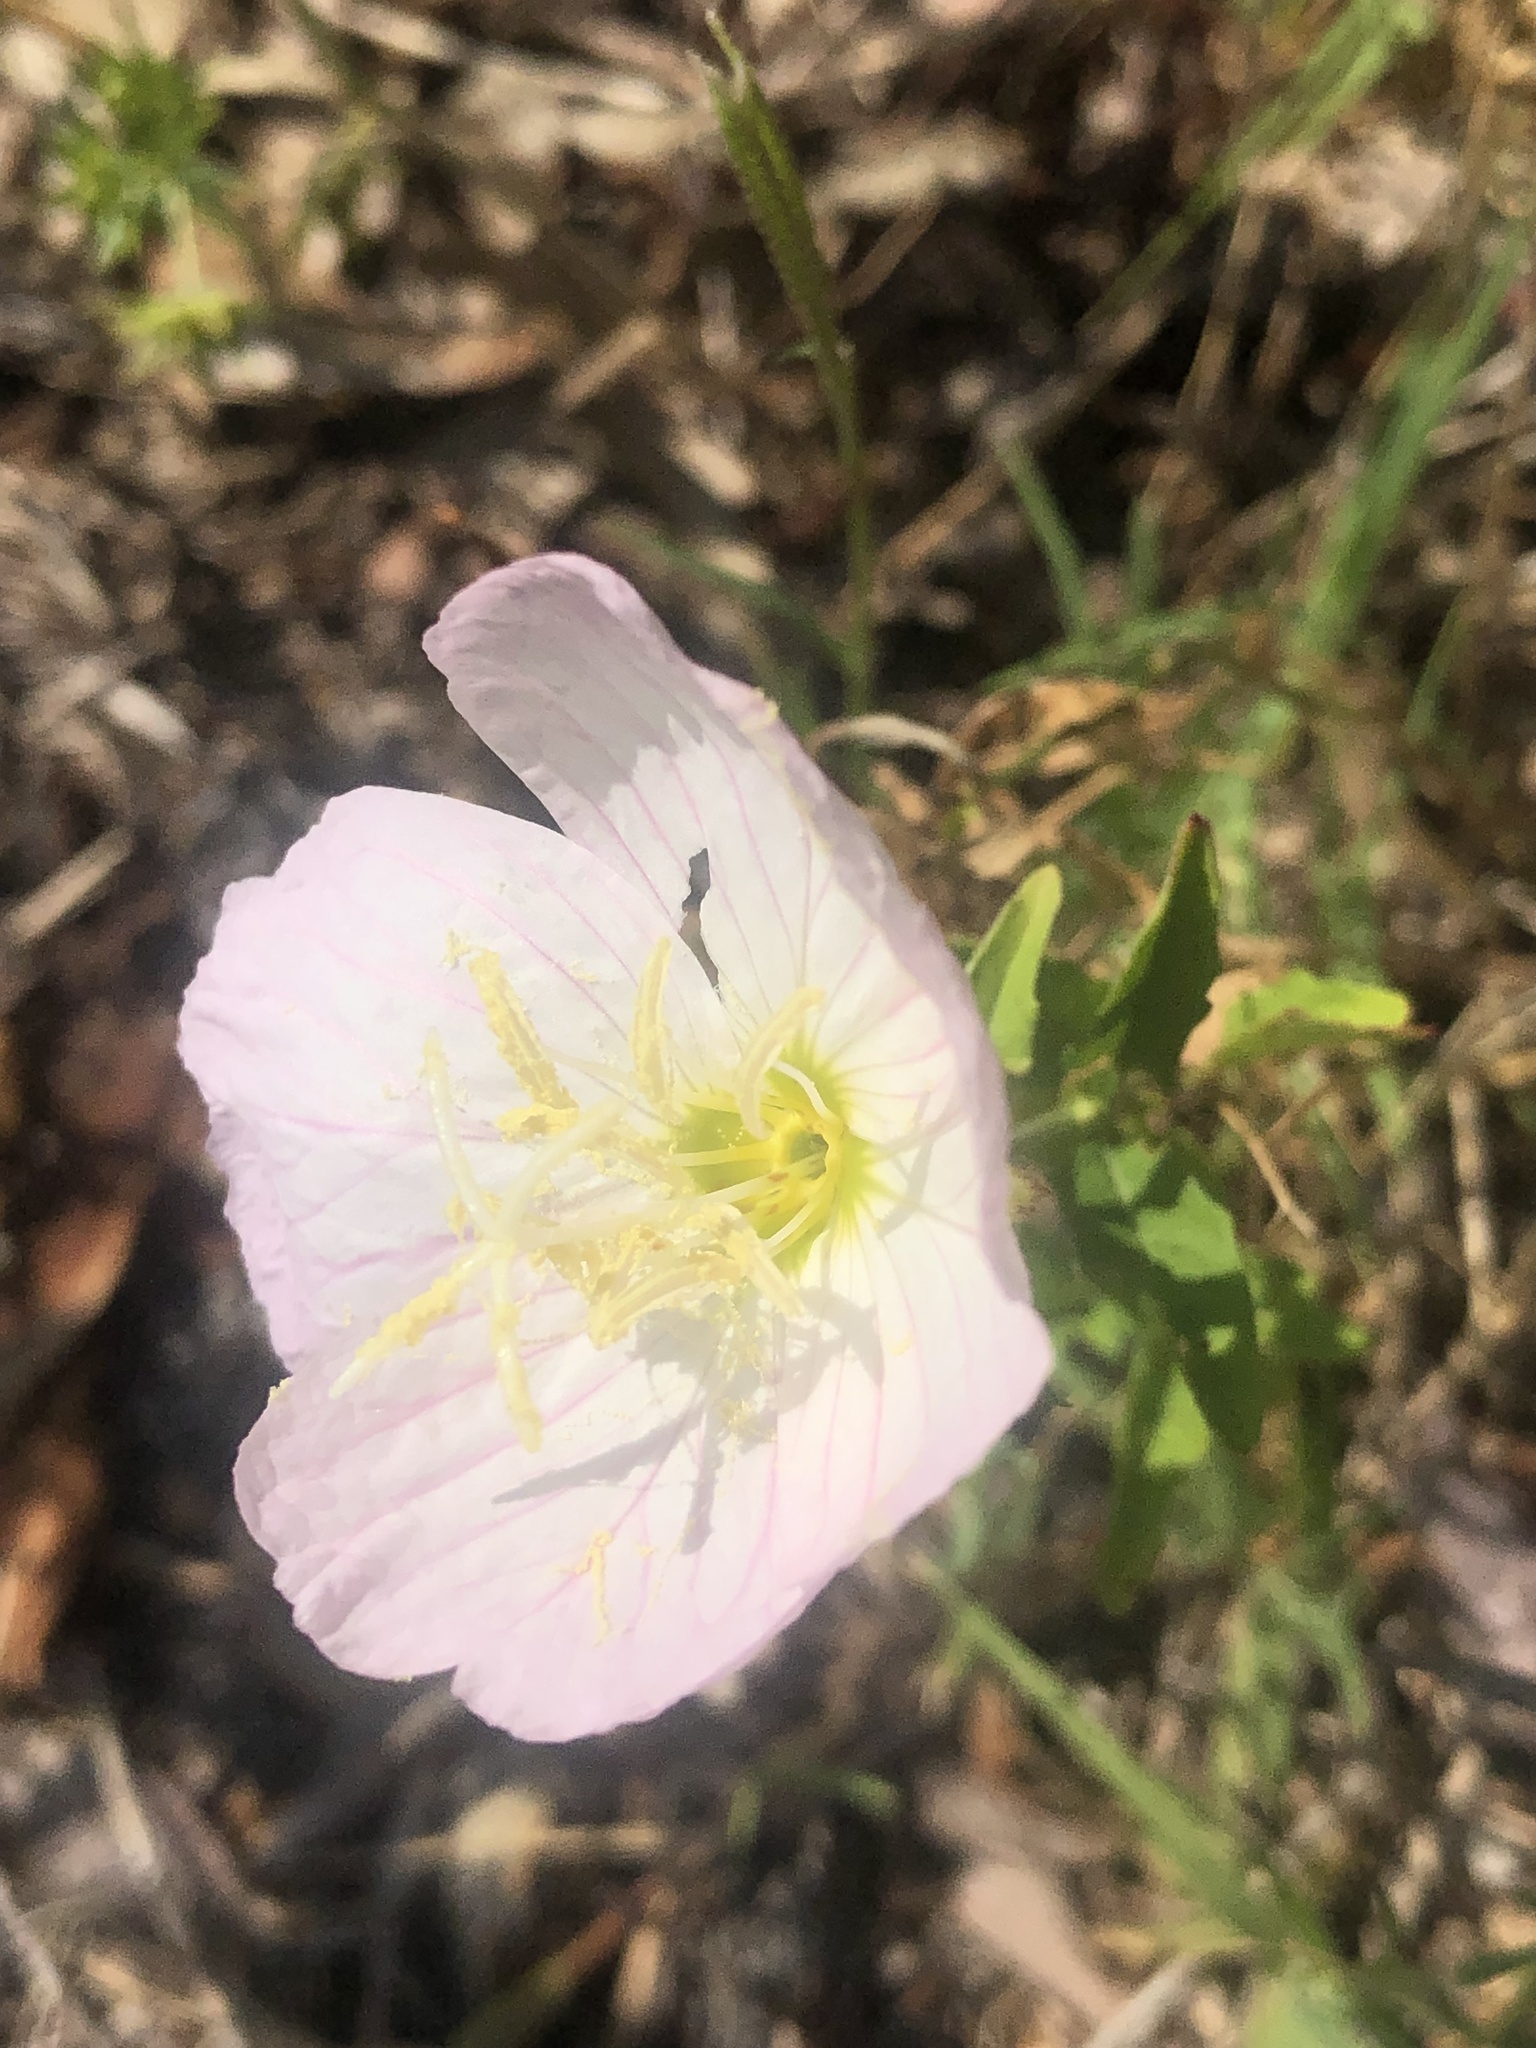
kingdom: Plantae
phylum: Tracheophyta
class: Magnoliopsida
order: Myrtales
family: Onagraceae
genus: Oenothera
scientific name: Oenothera speciosa
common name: White evening-primrose
